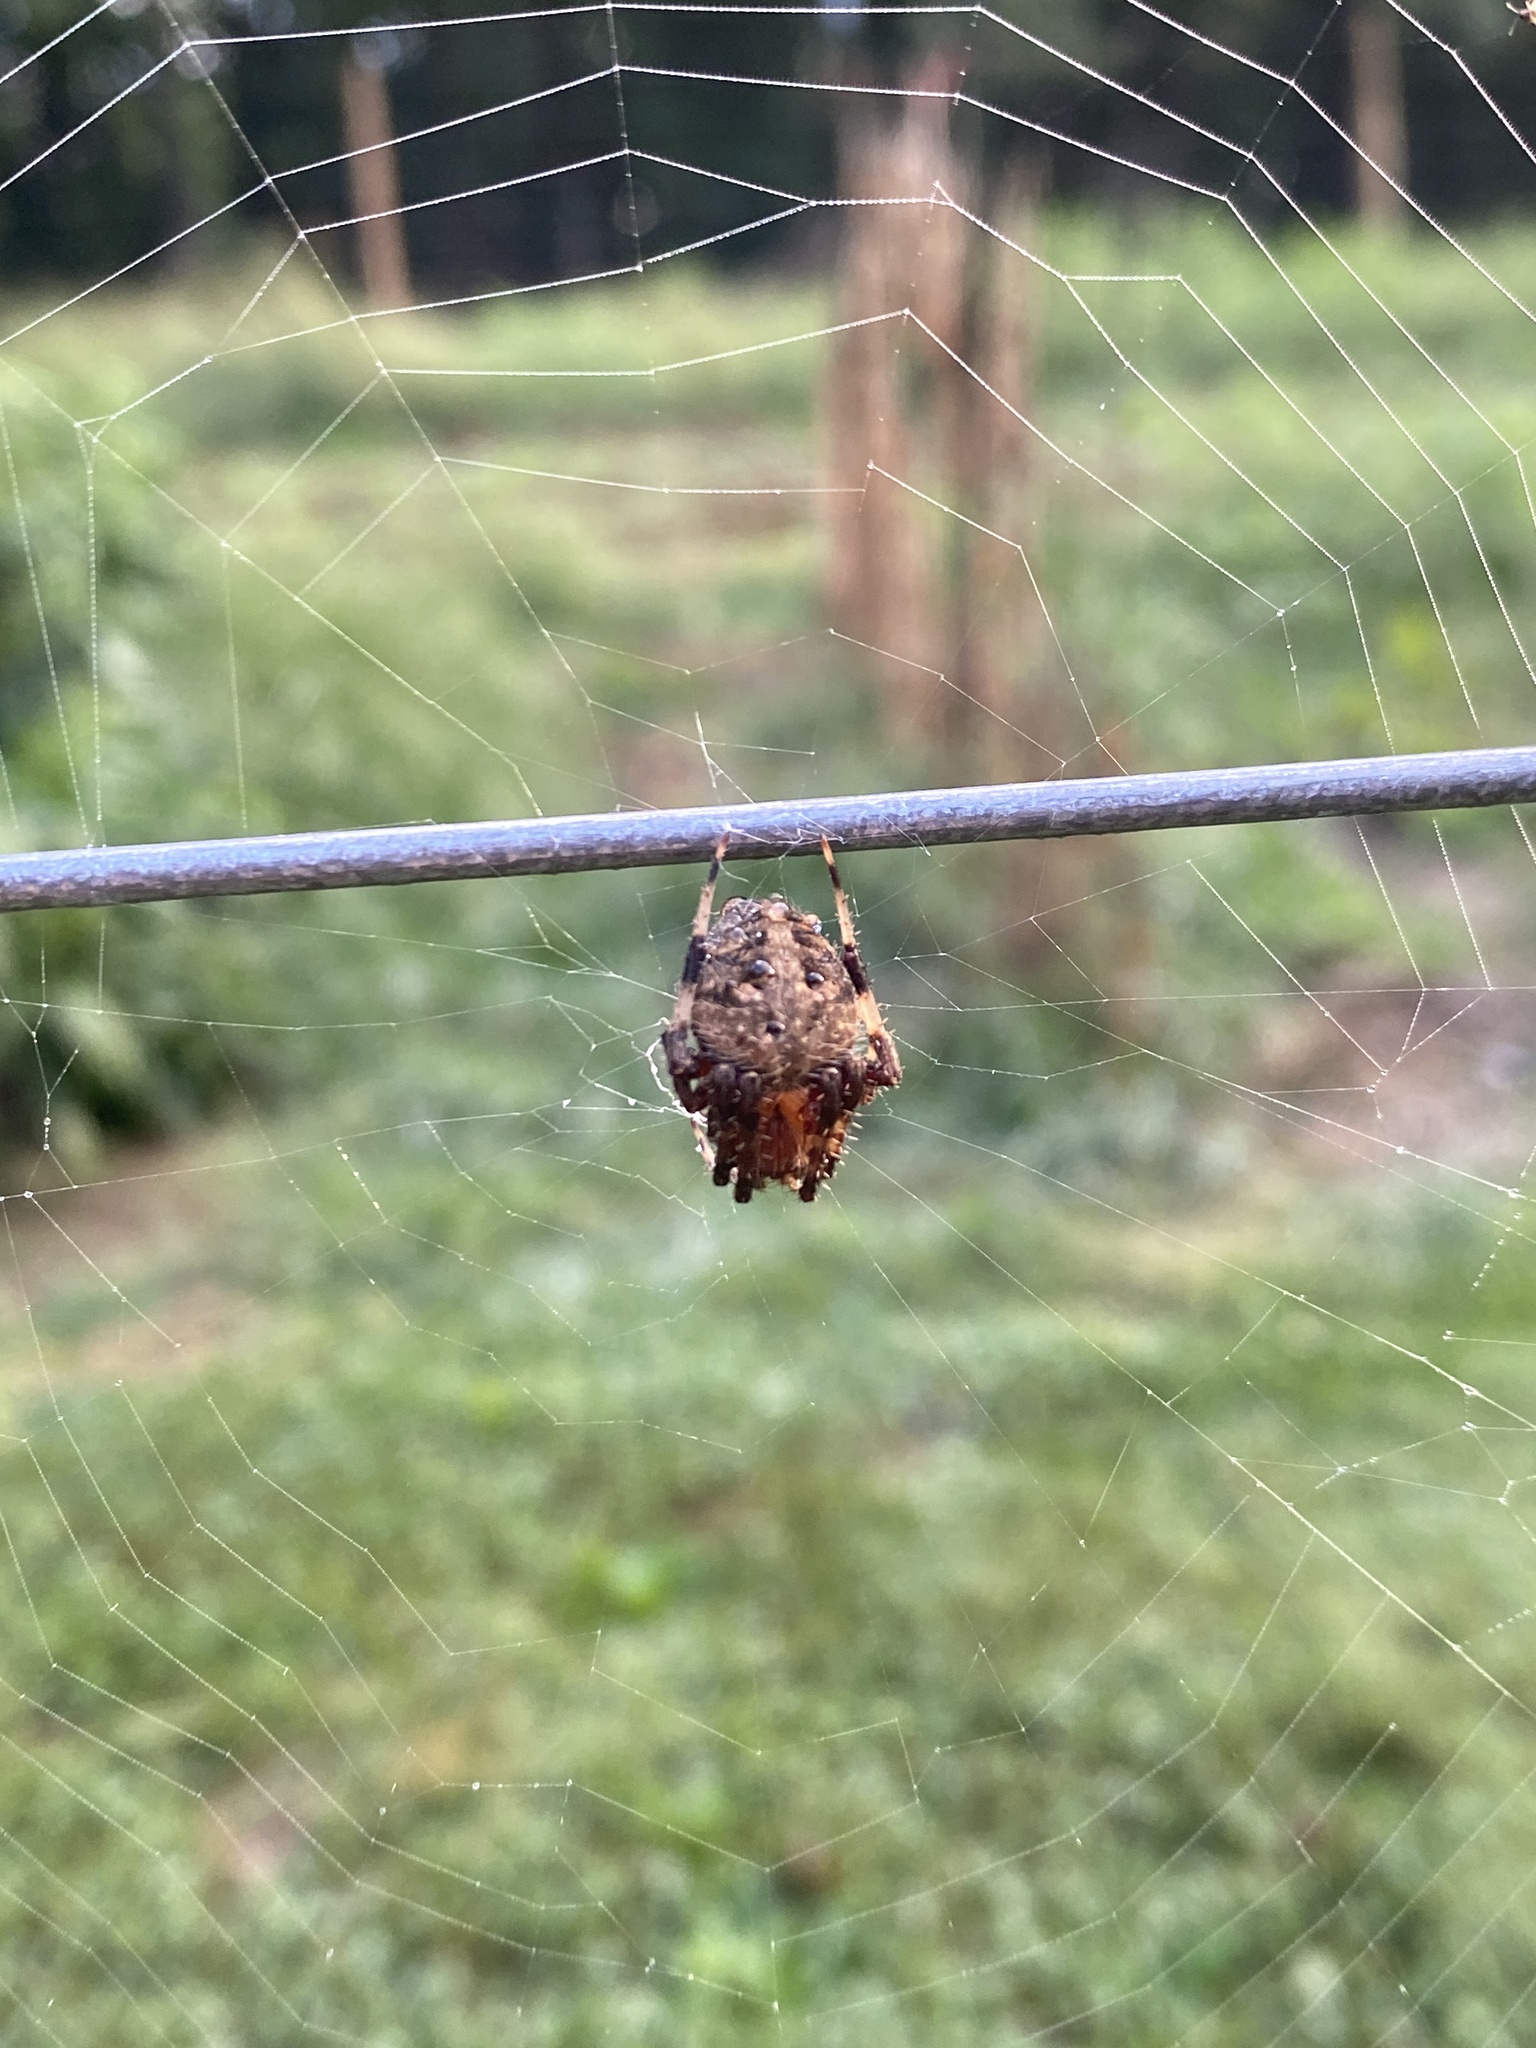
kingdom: Animalia
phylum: Arthropoda
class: Arachnida
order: Araneae
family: Araneidae
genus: Neoscona
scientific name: Neoscona crucifera
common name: Spotted orbweaver
